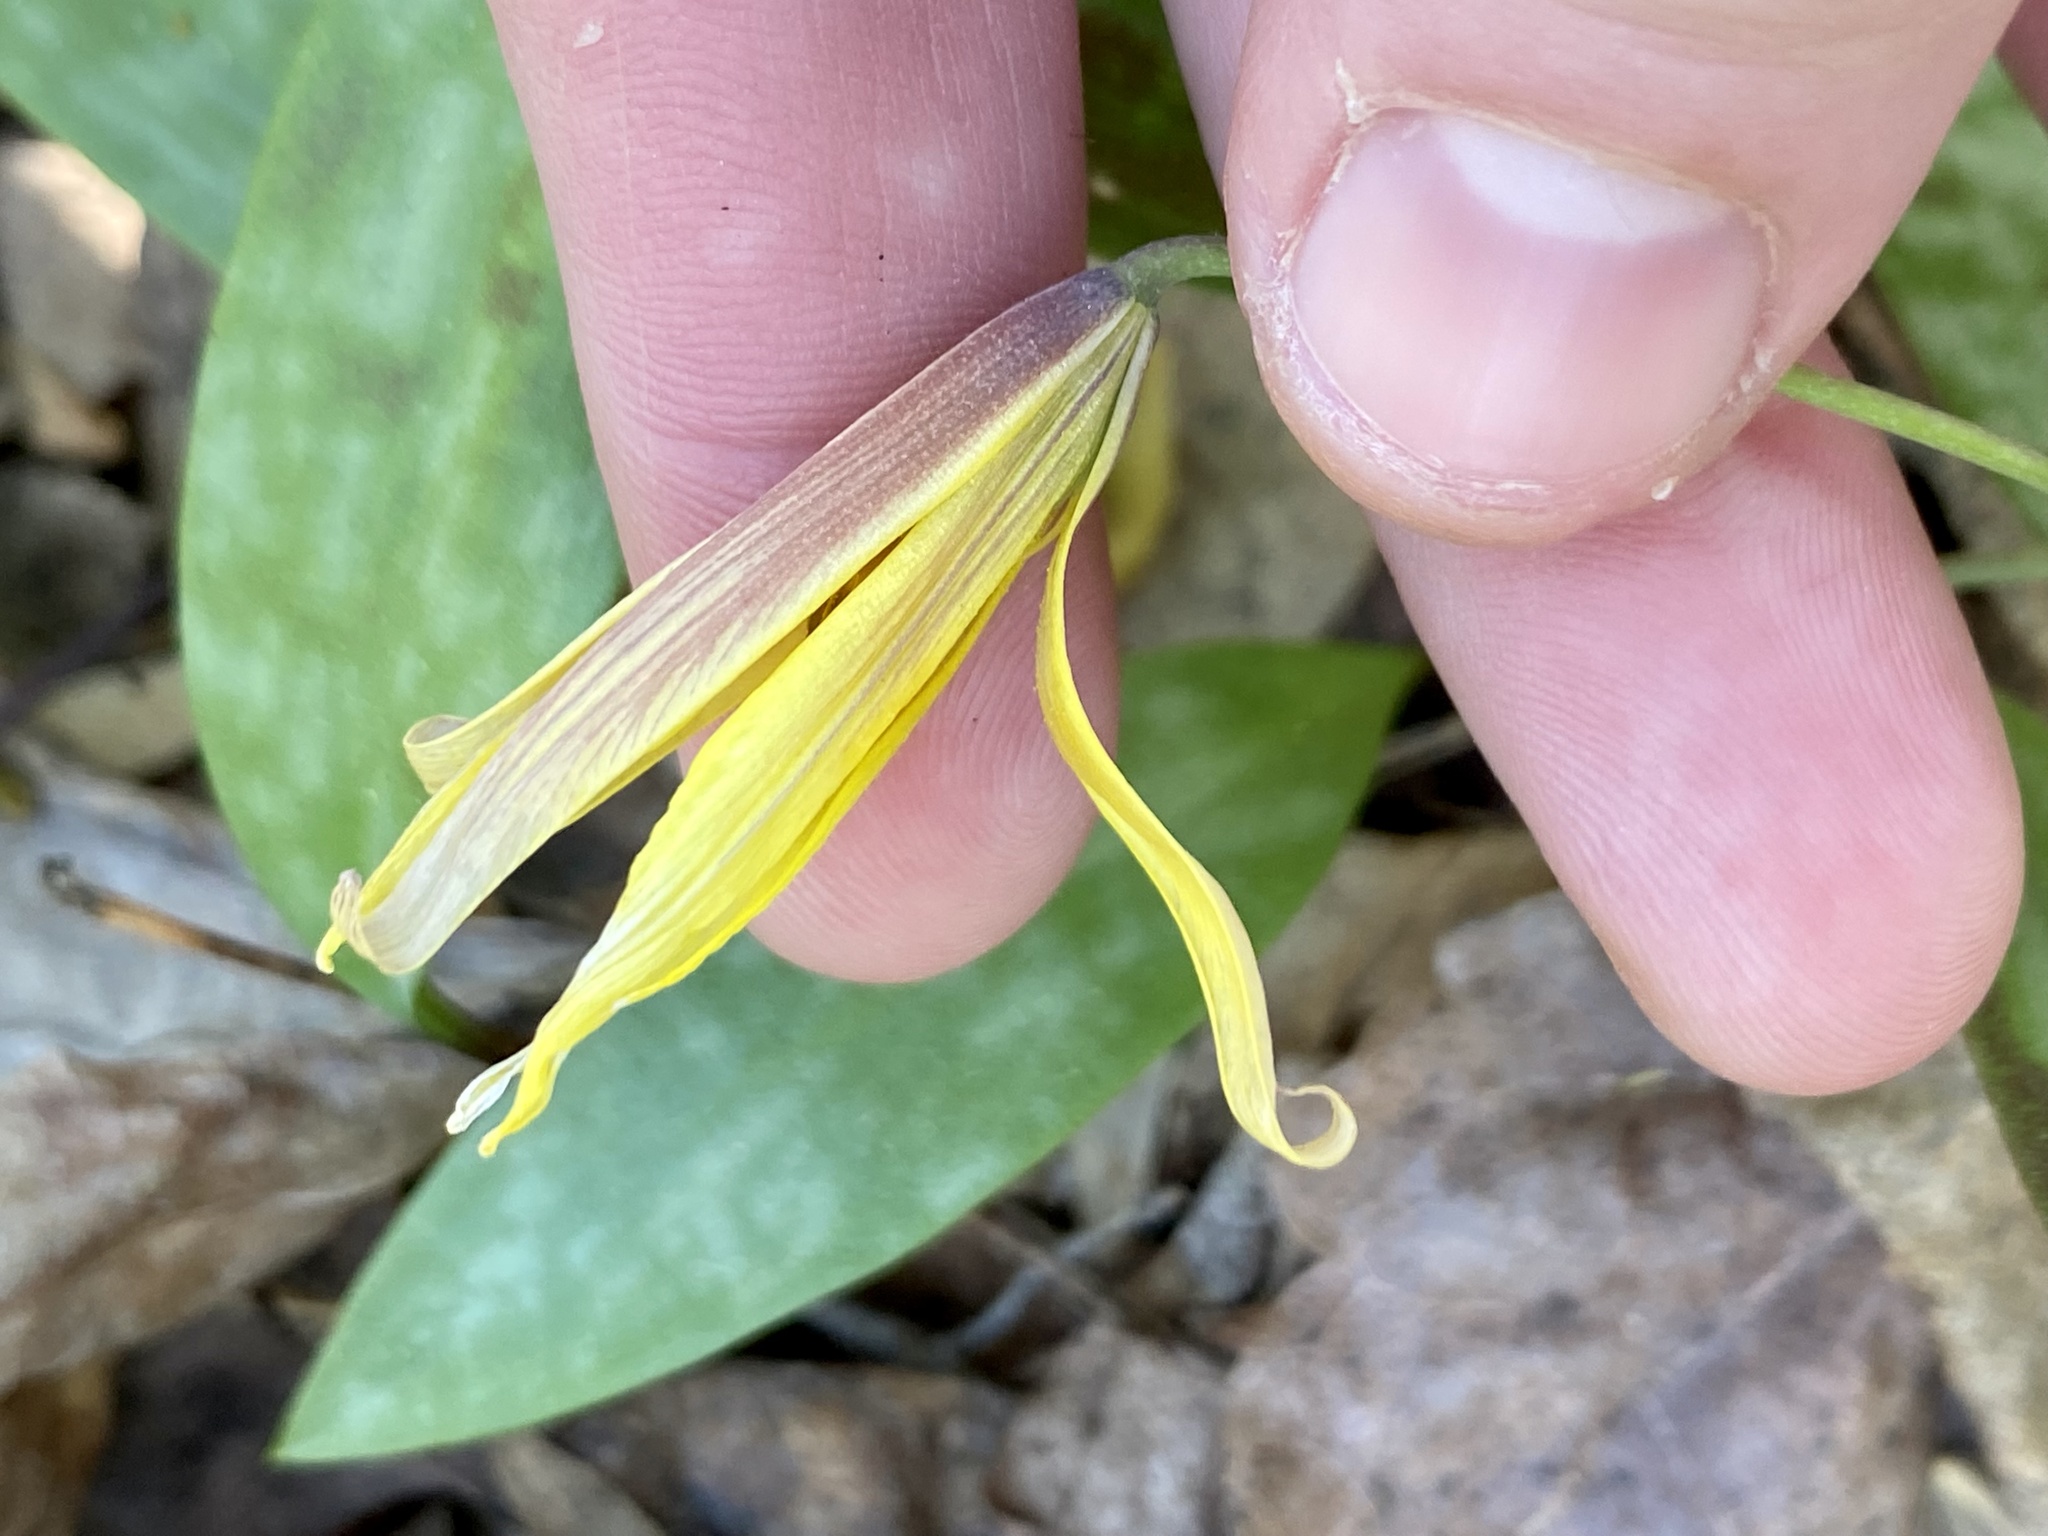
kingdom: Plantae
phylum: Tracheophyta
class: Liliopsida
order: Liliales
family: Liliaceae
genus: Erythronium
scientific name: Erythronium americanum
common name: Yellow adder's-tongue
